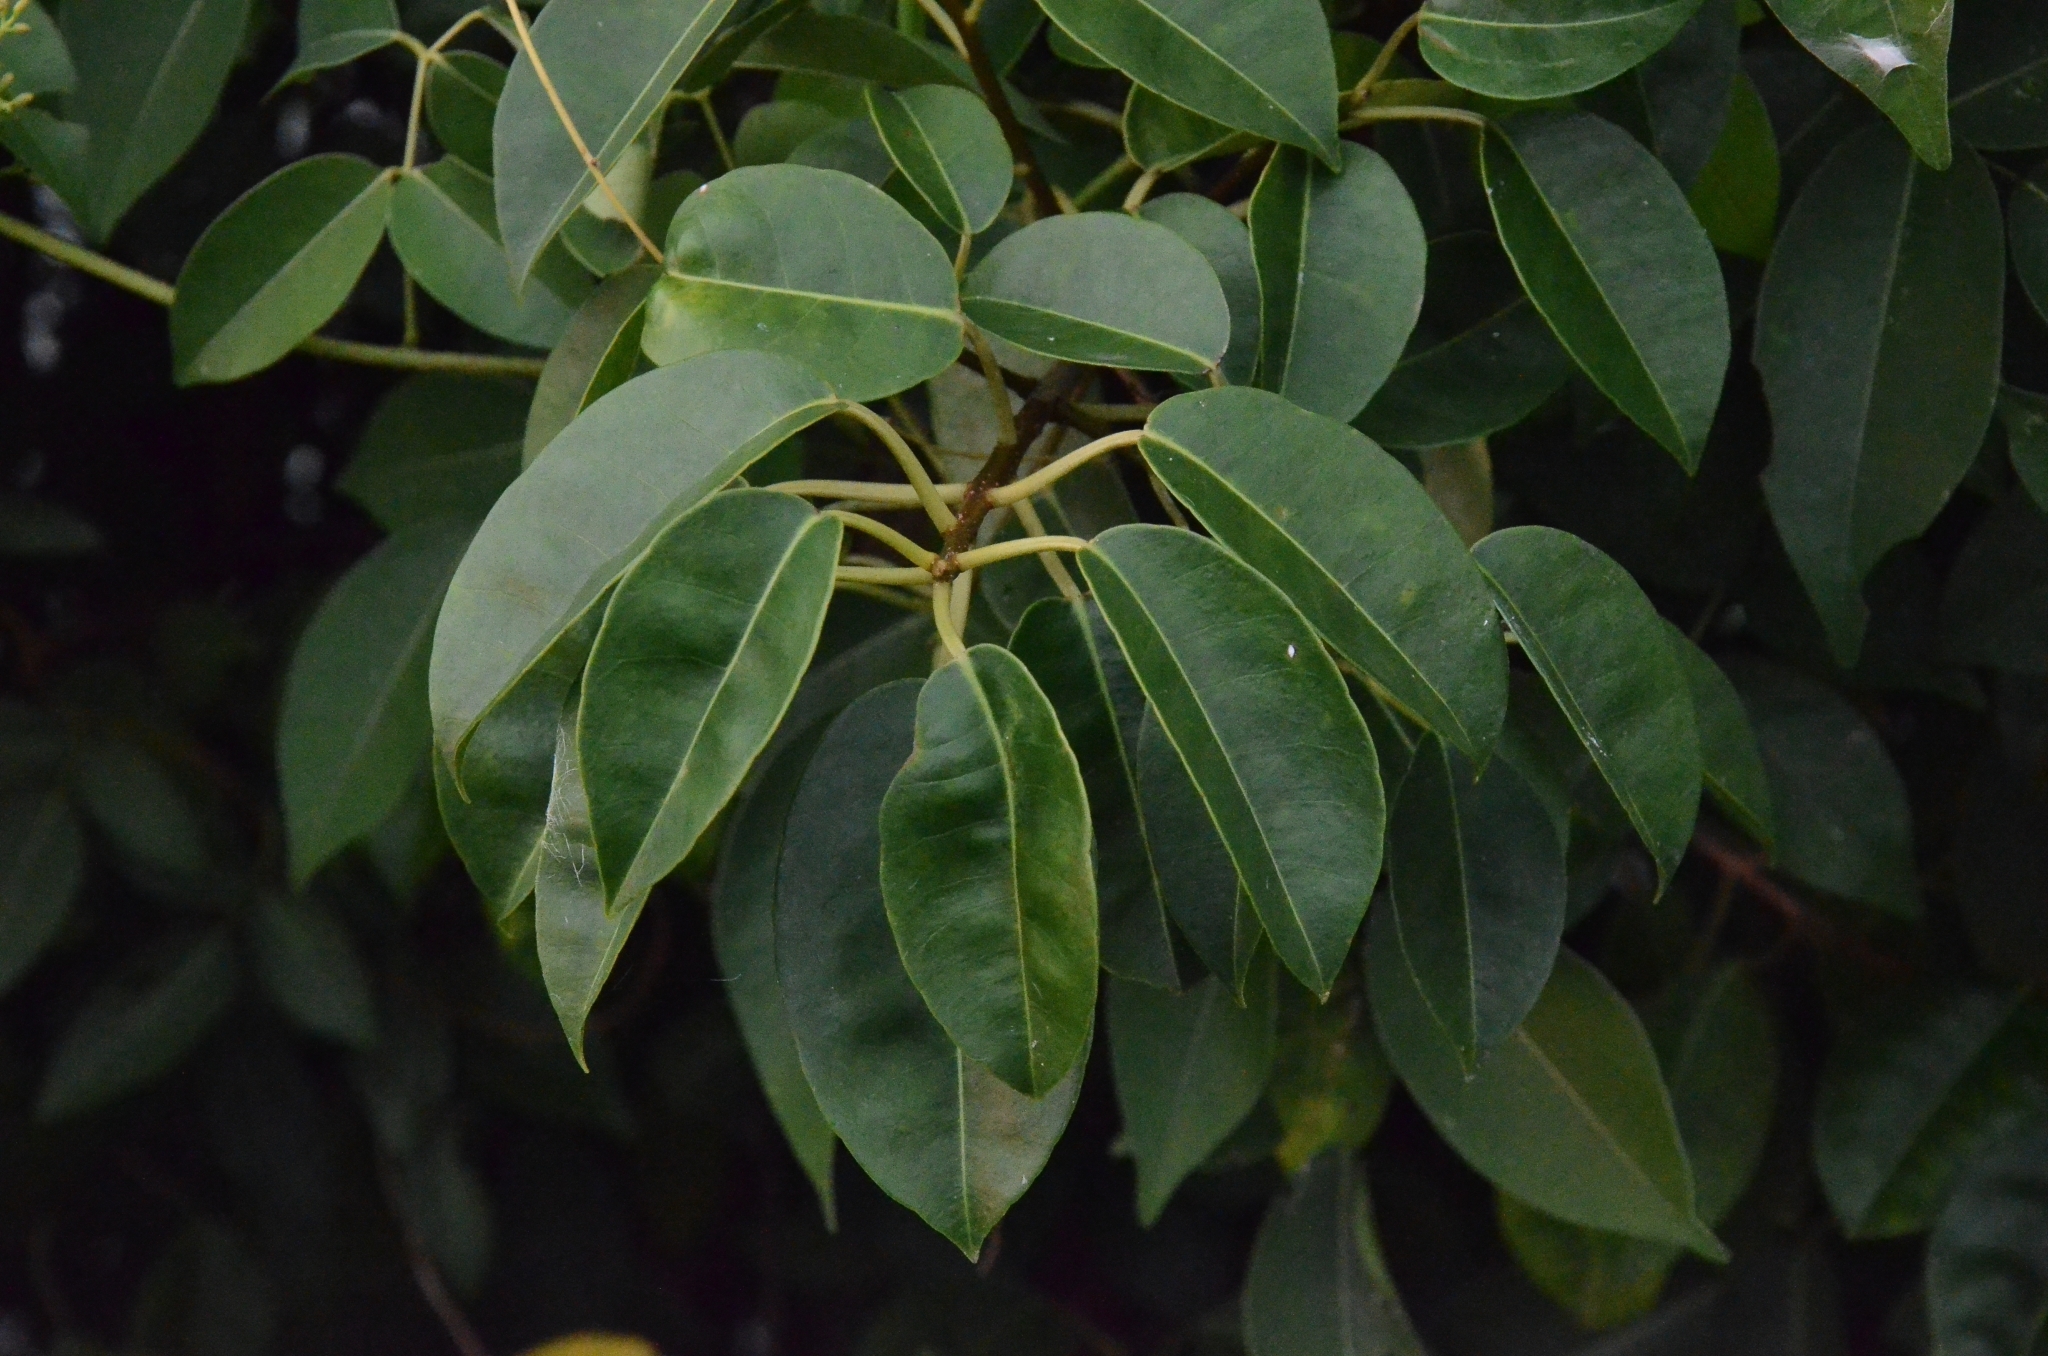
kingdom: Plantae
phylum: Tracheophyta
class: Magnoliopsida
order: Malpighiales
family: Euphorbiaceae
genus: Excoecaria
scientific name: Excoecaria agallocha
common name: River poisontree
